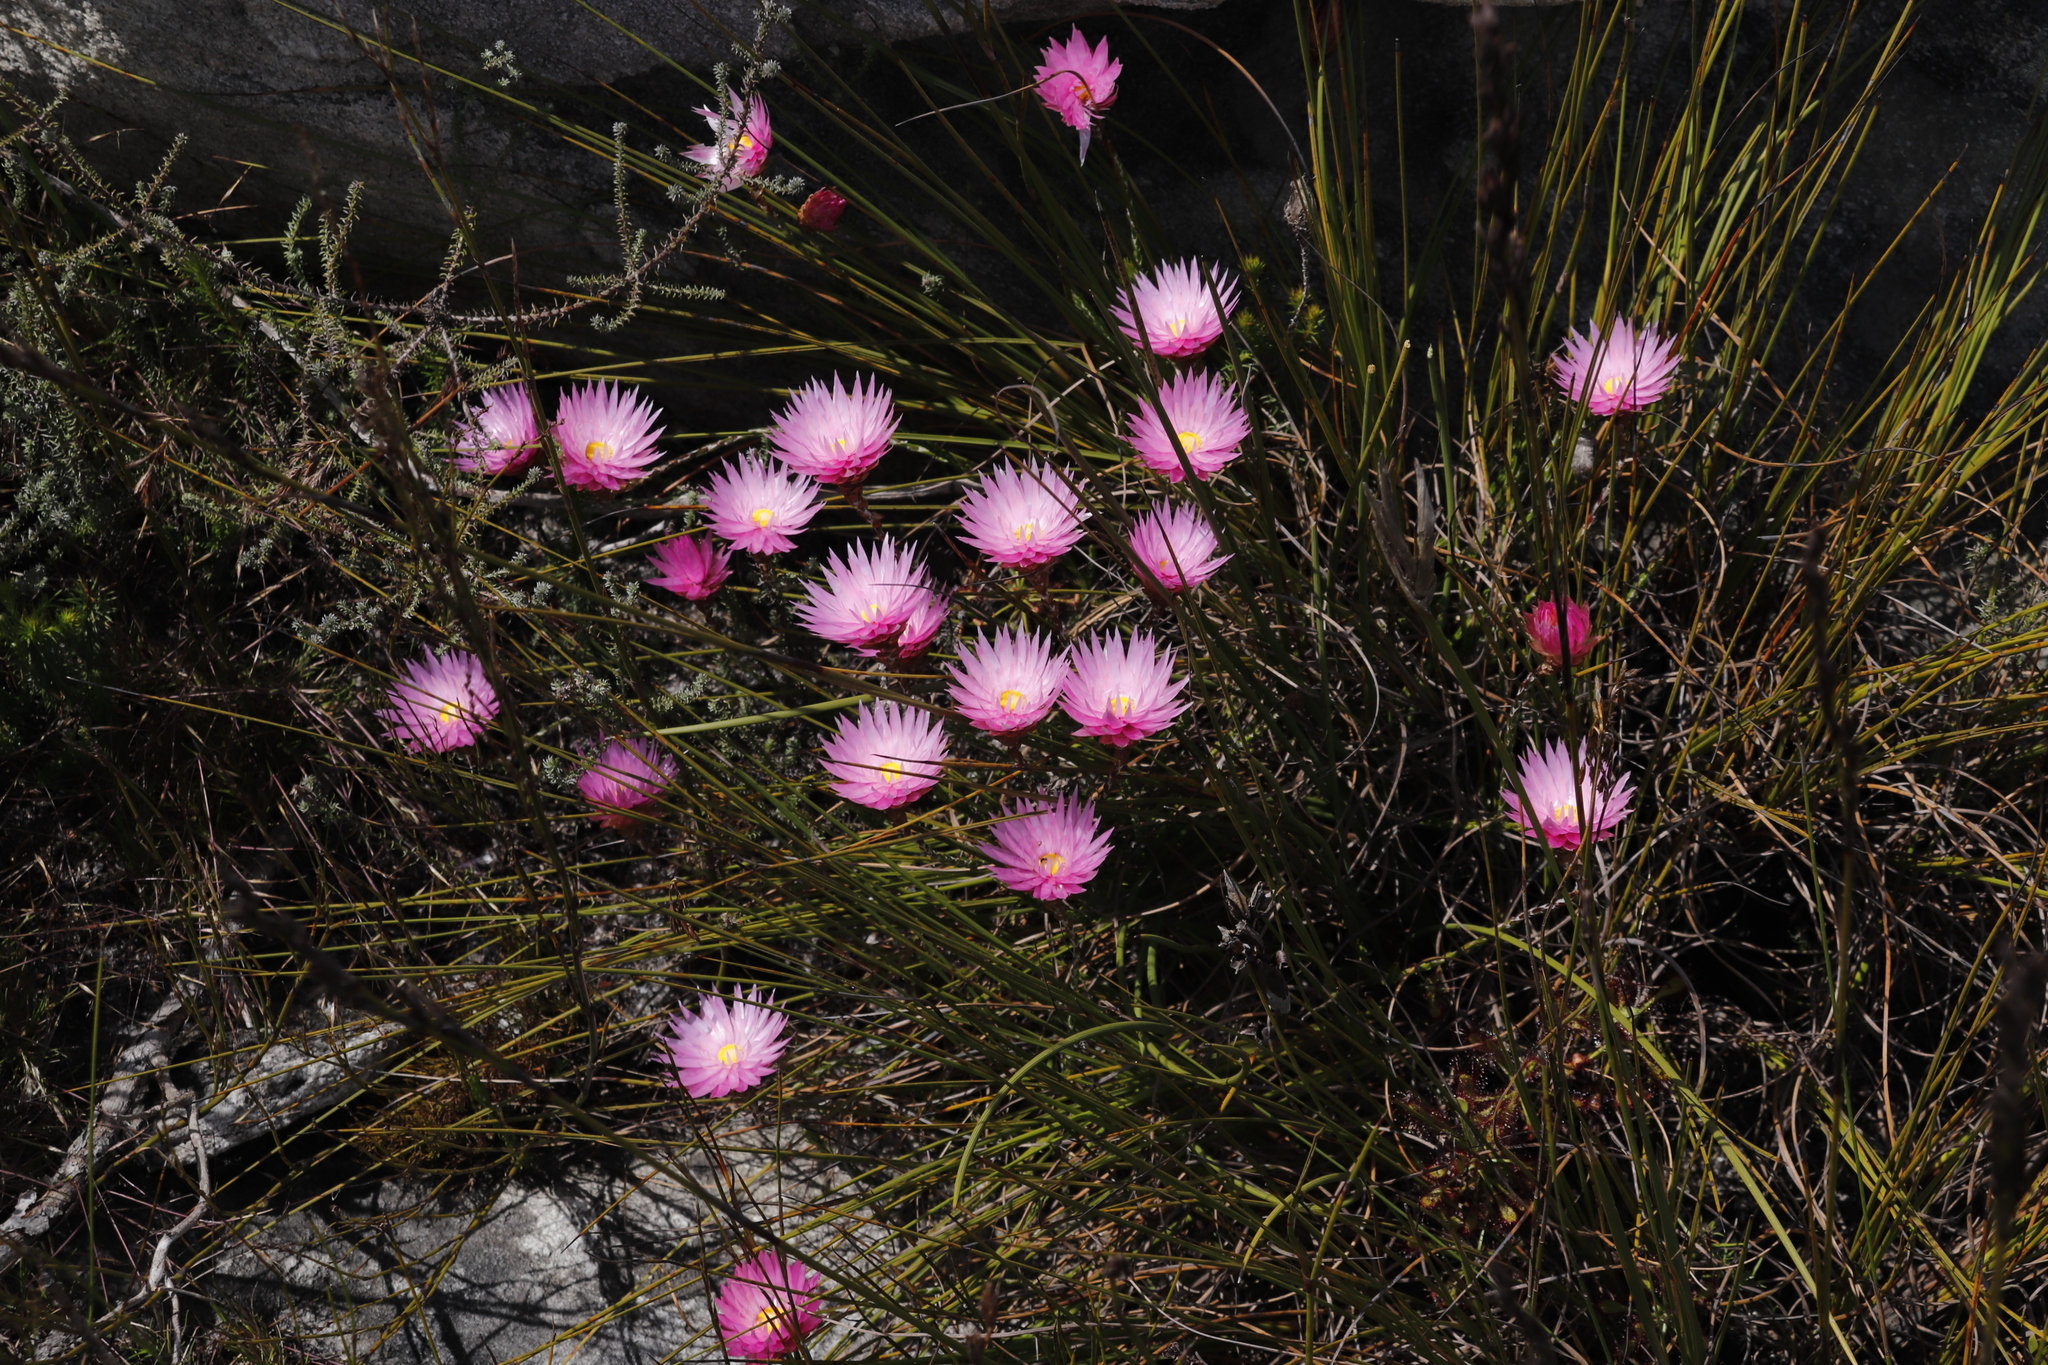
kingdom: Plantae
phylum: Tracheophyta
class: Magnoliopsida
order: Asterales
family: Asteraceae
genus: Edmondia
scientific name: Edmondia pinifolia
